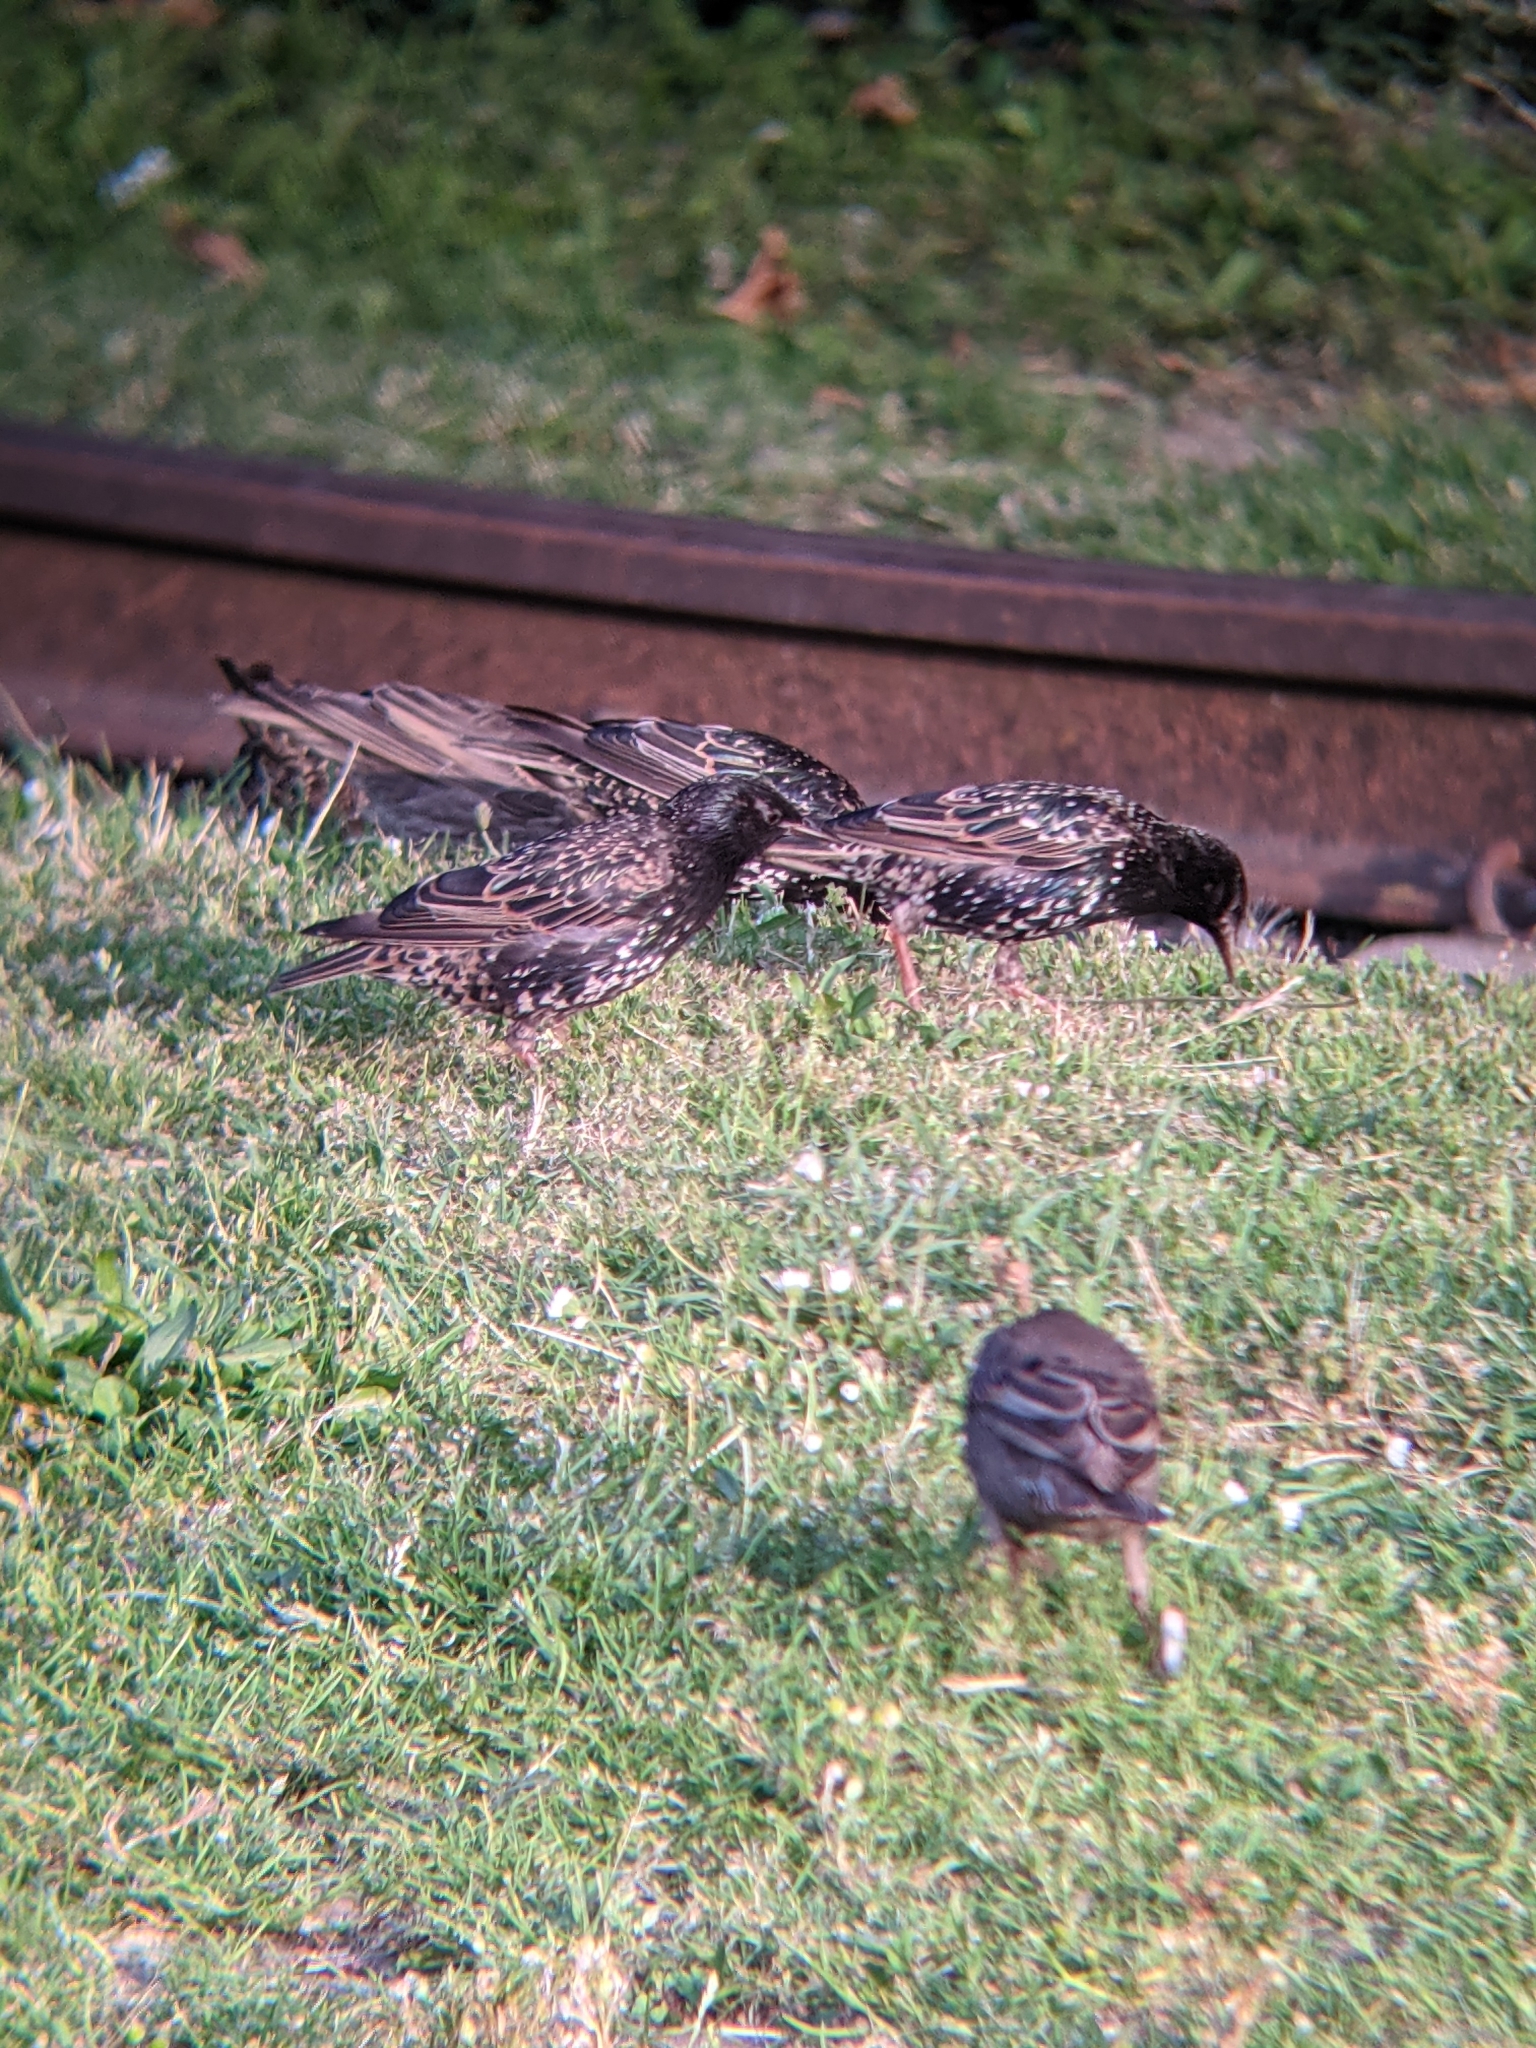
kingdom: Animalia
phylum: Chordata
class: Aves
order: Passeriformes
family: Sturnidae
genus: Sturnus
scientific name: Sturnus vulgaris
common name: Common starling
